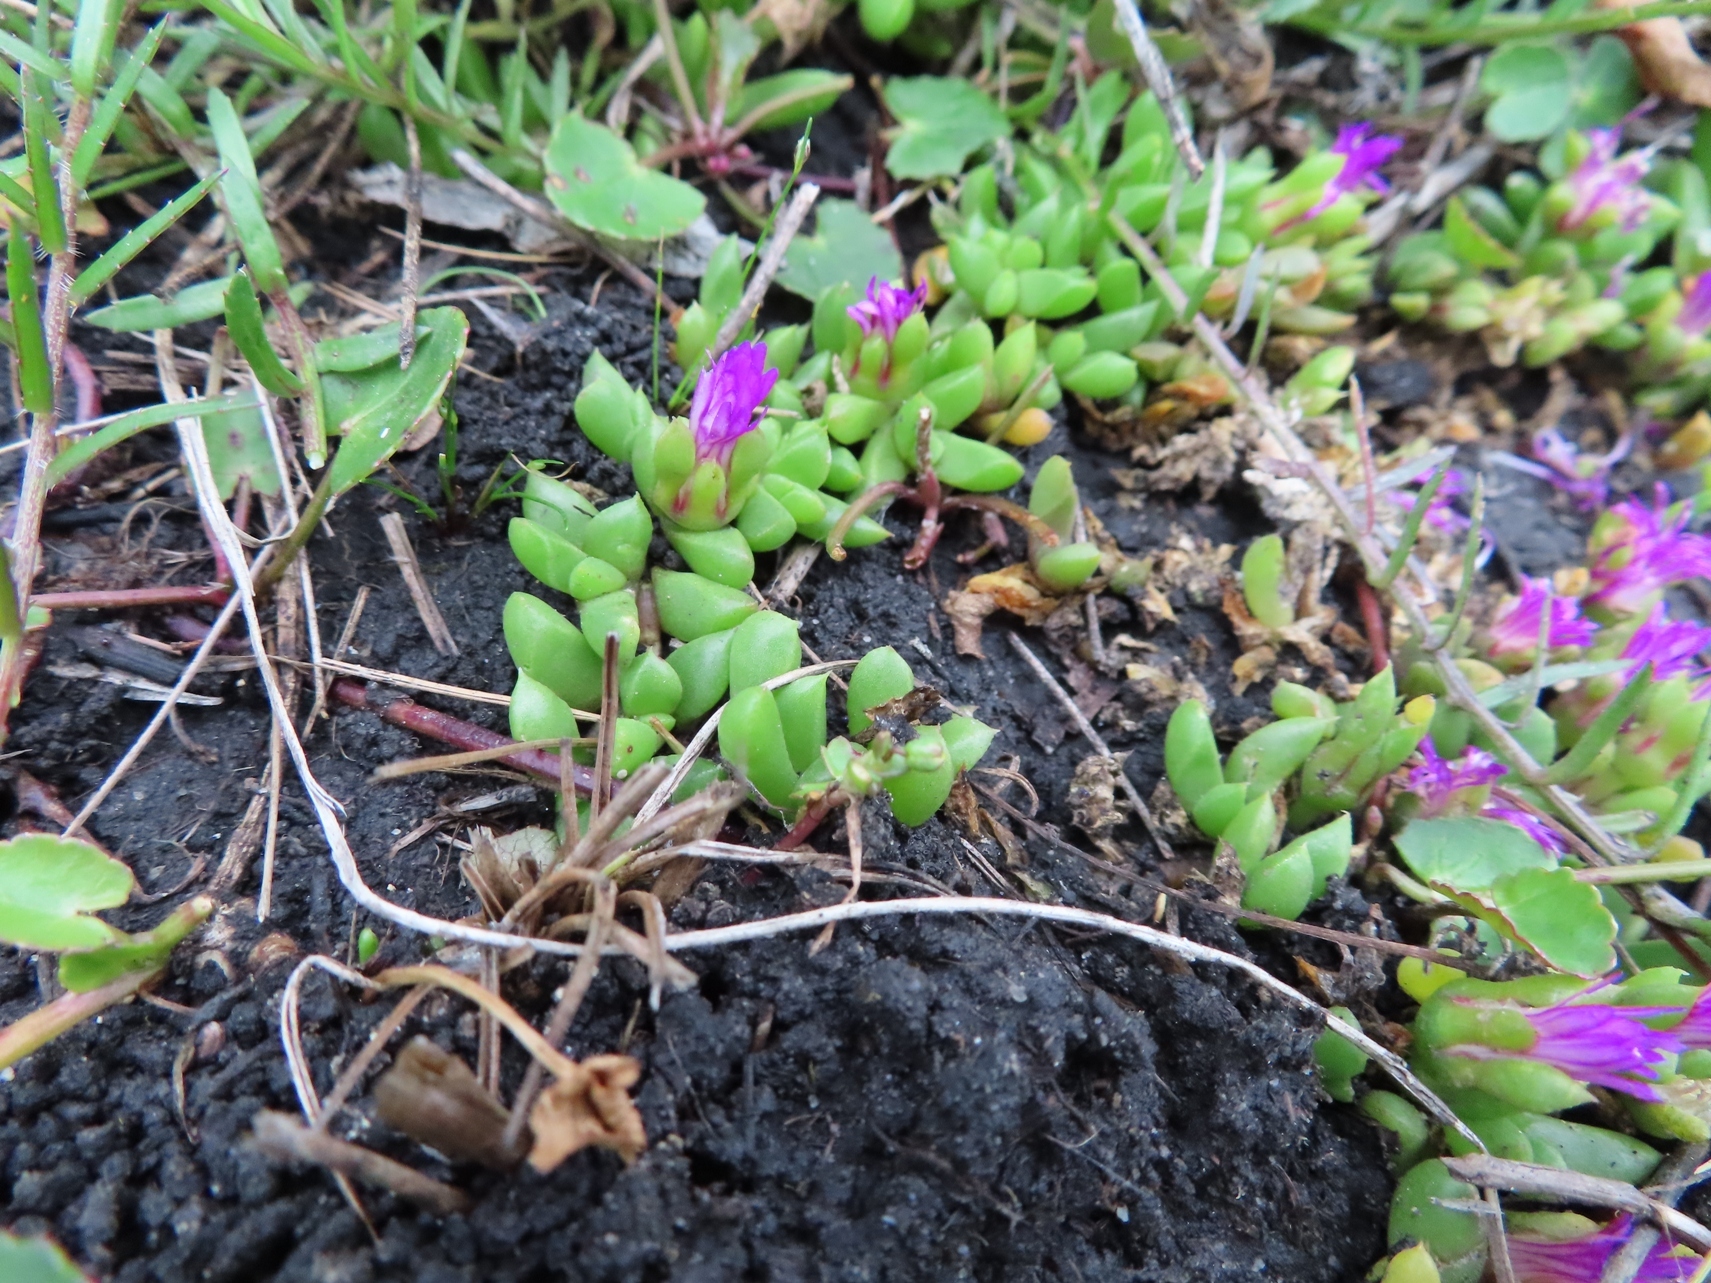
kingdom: Plantae
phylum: Tracheophyta
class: Magnoliopsida
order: Caryophyllales
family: Aizoaceae
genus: Disphyma
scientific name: Disphyma dunsdonii
